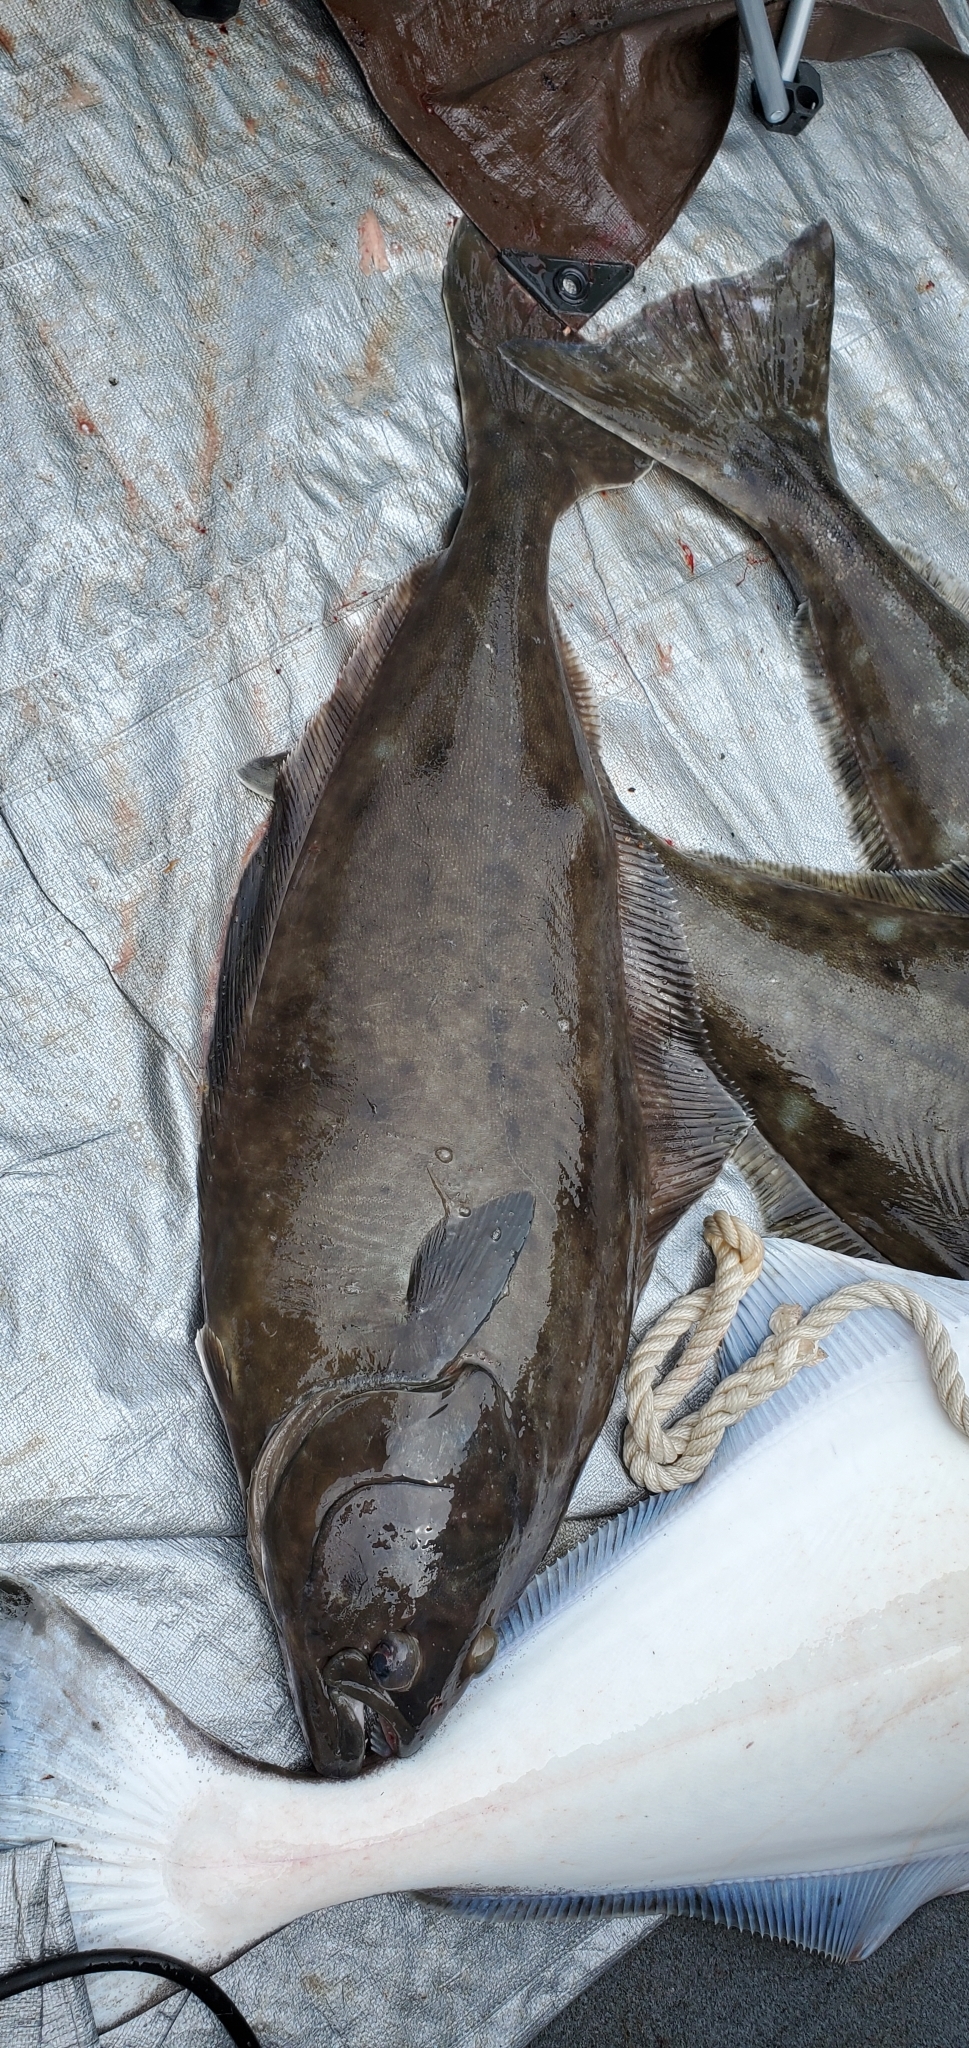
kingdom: Animalia
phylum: Chordata
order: Pleuronectiformes
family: Pleuronectidae
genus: Hippoglossus
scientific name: Hippoglossus stenolepis
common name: Pacific halibut
